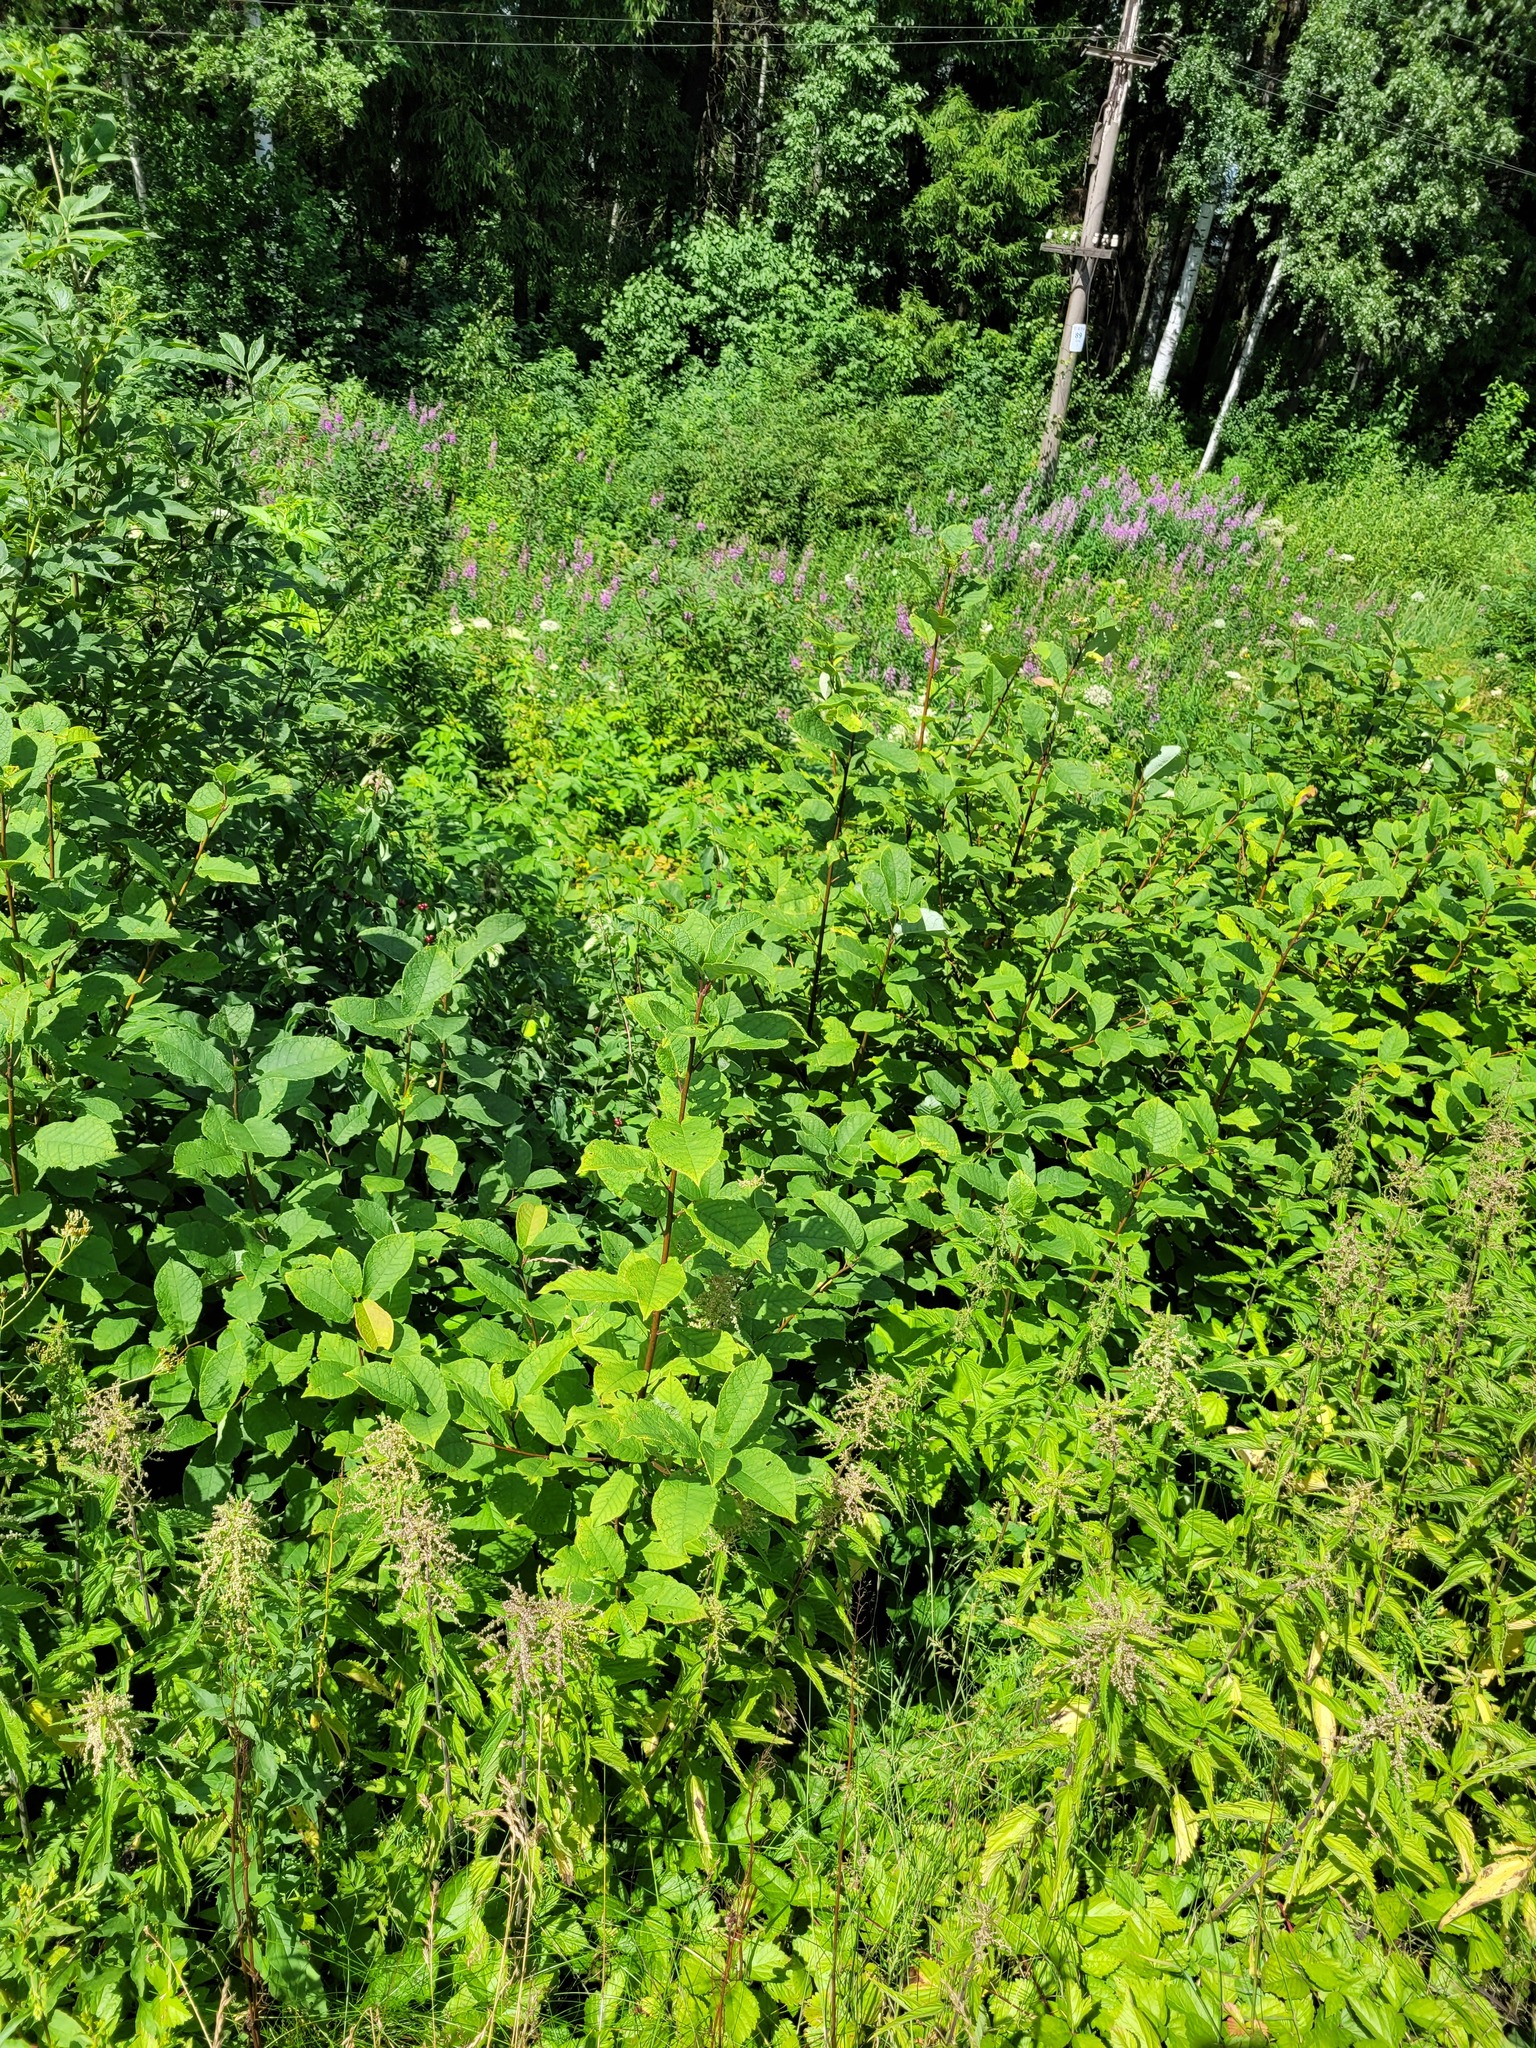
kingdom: Plantae
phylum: Tracheophyta
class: Magnoliopsida
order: Rosales
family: Rosaceae
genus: Prunus
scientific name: Prunus padus
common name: Bird cherry
